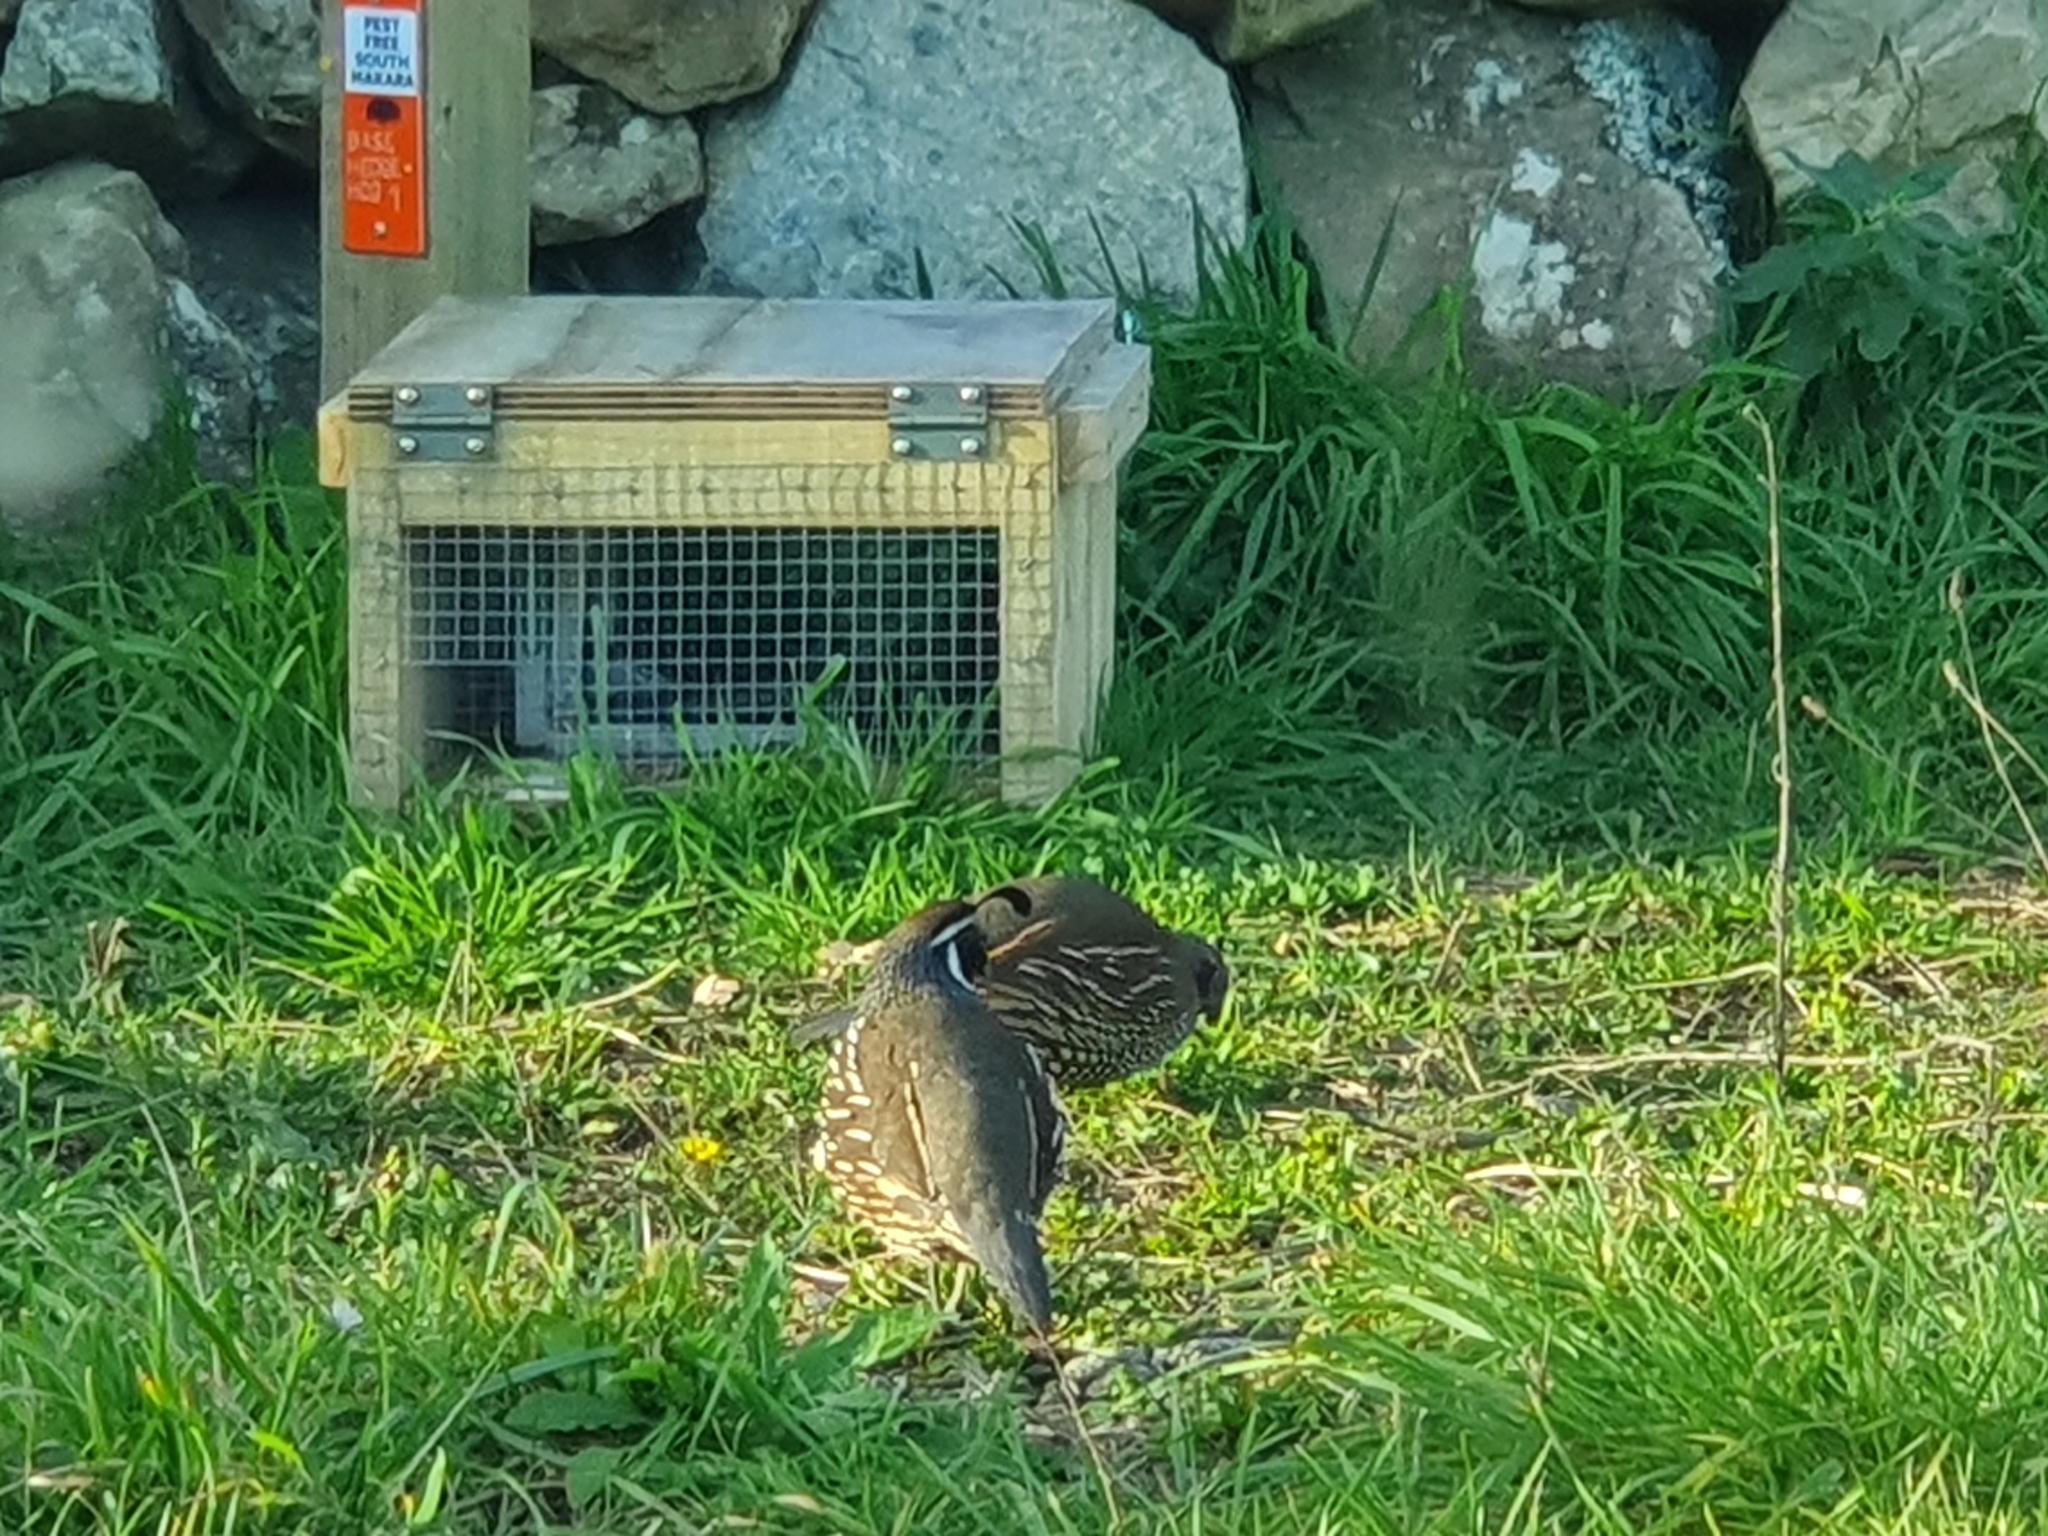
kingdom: Animalia
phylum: Chordata
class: Aves
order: Galliformes
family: Odontophoridae
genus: Callipepla
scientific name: Callipepla californica
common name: California quail
